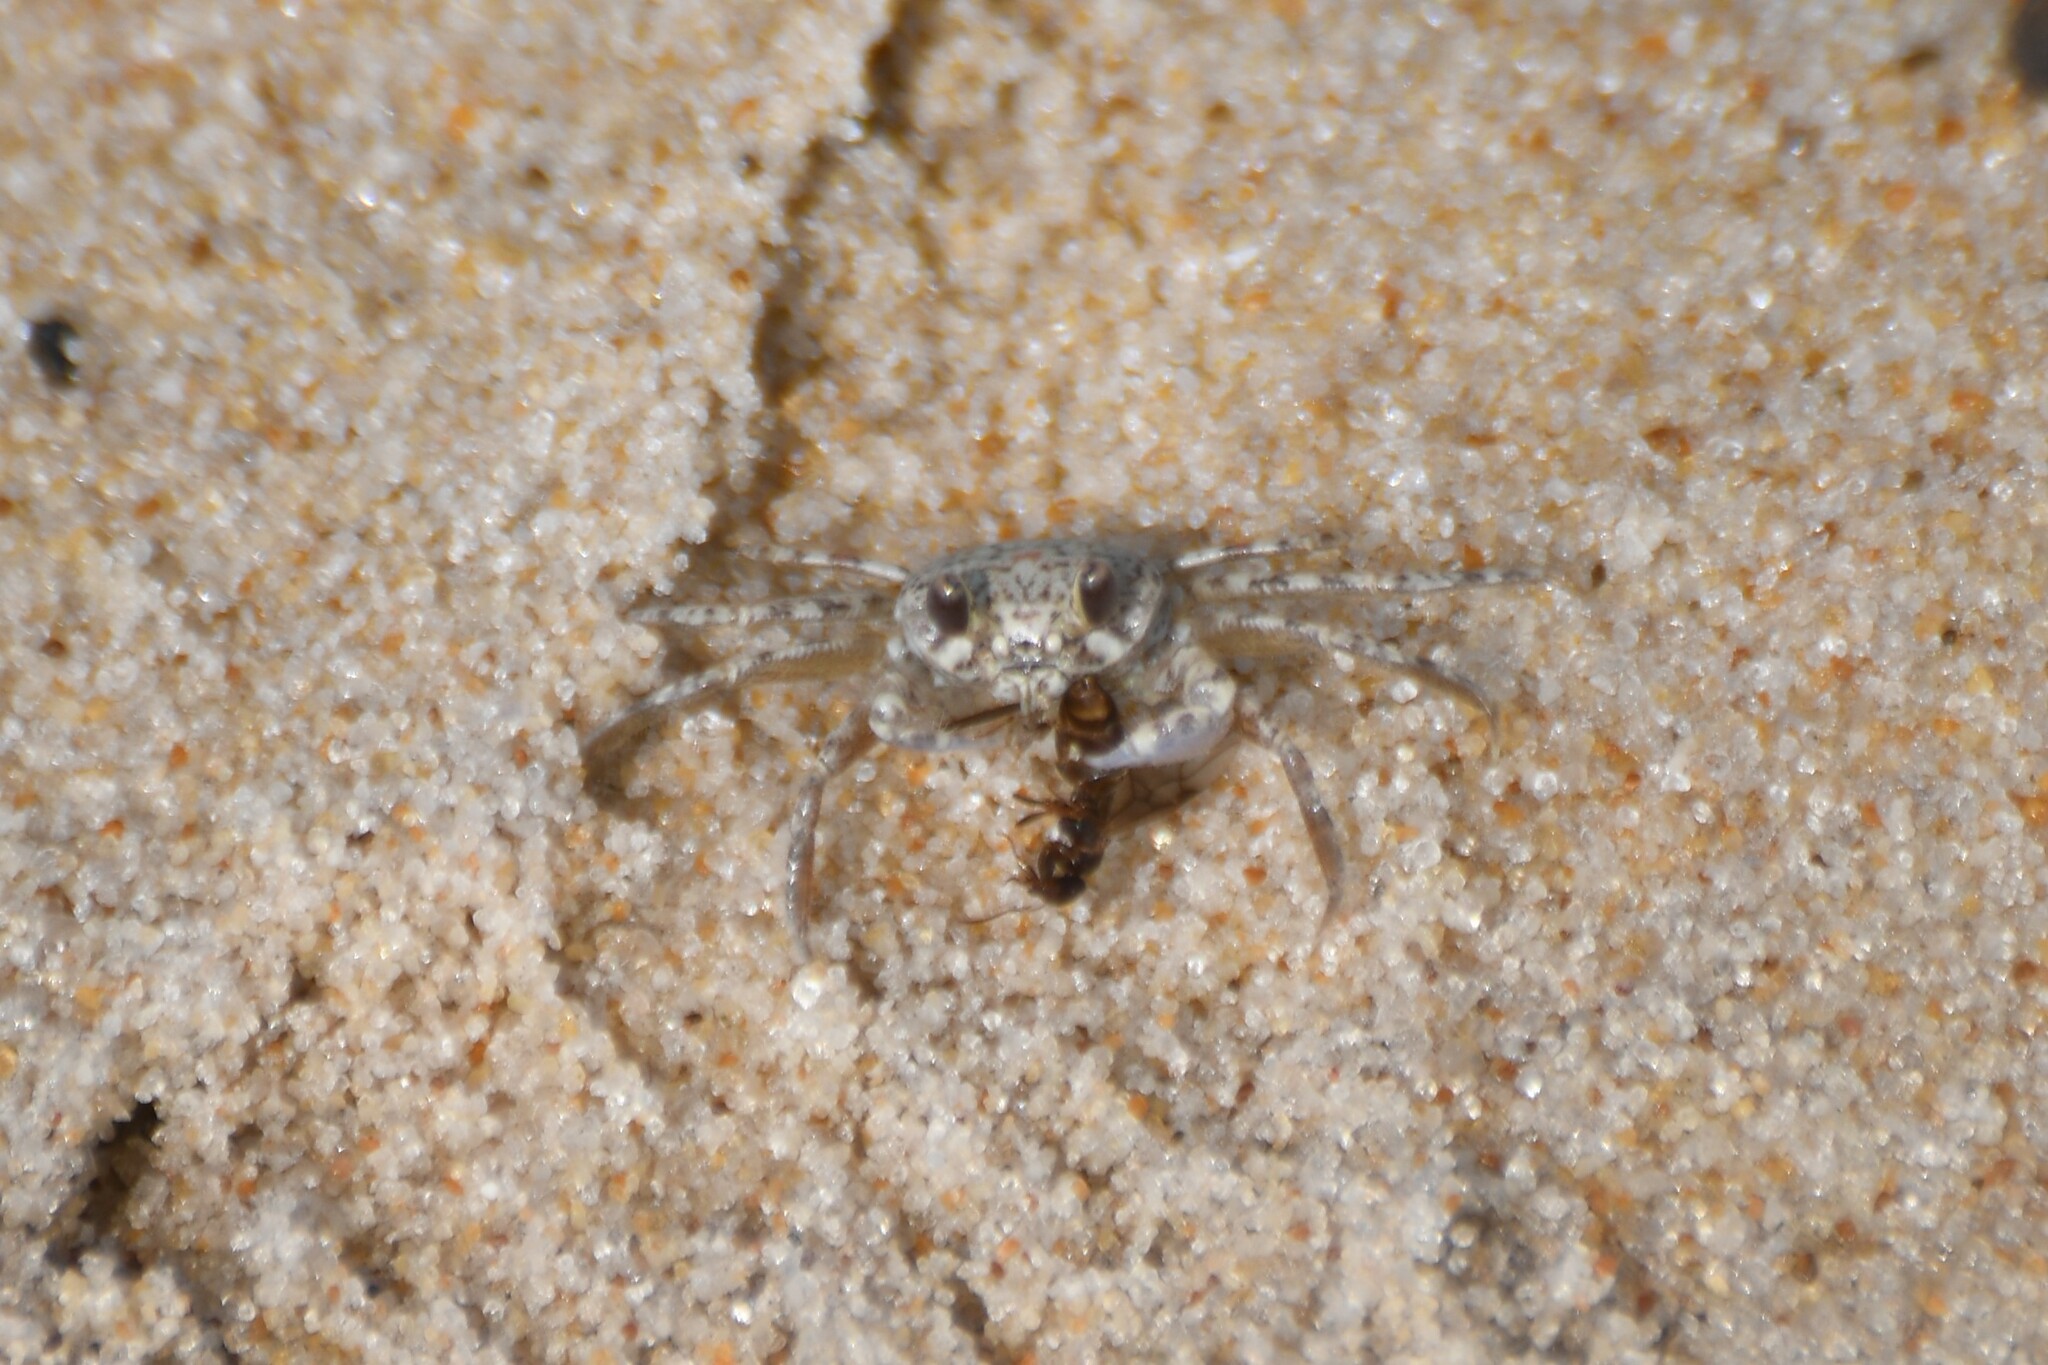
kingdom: Animalia
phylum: Arthropoda
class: Malacostraca
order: Decapoda
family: Ocypodidae
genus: Ocypode
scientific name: Ocypode quadrata
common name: Ghost crab
